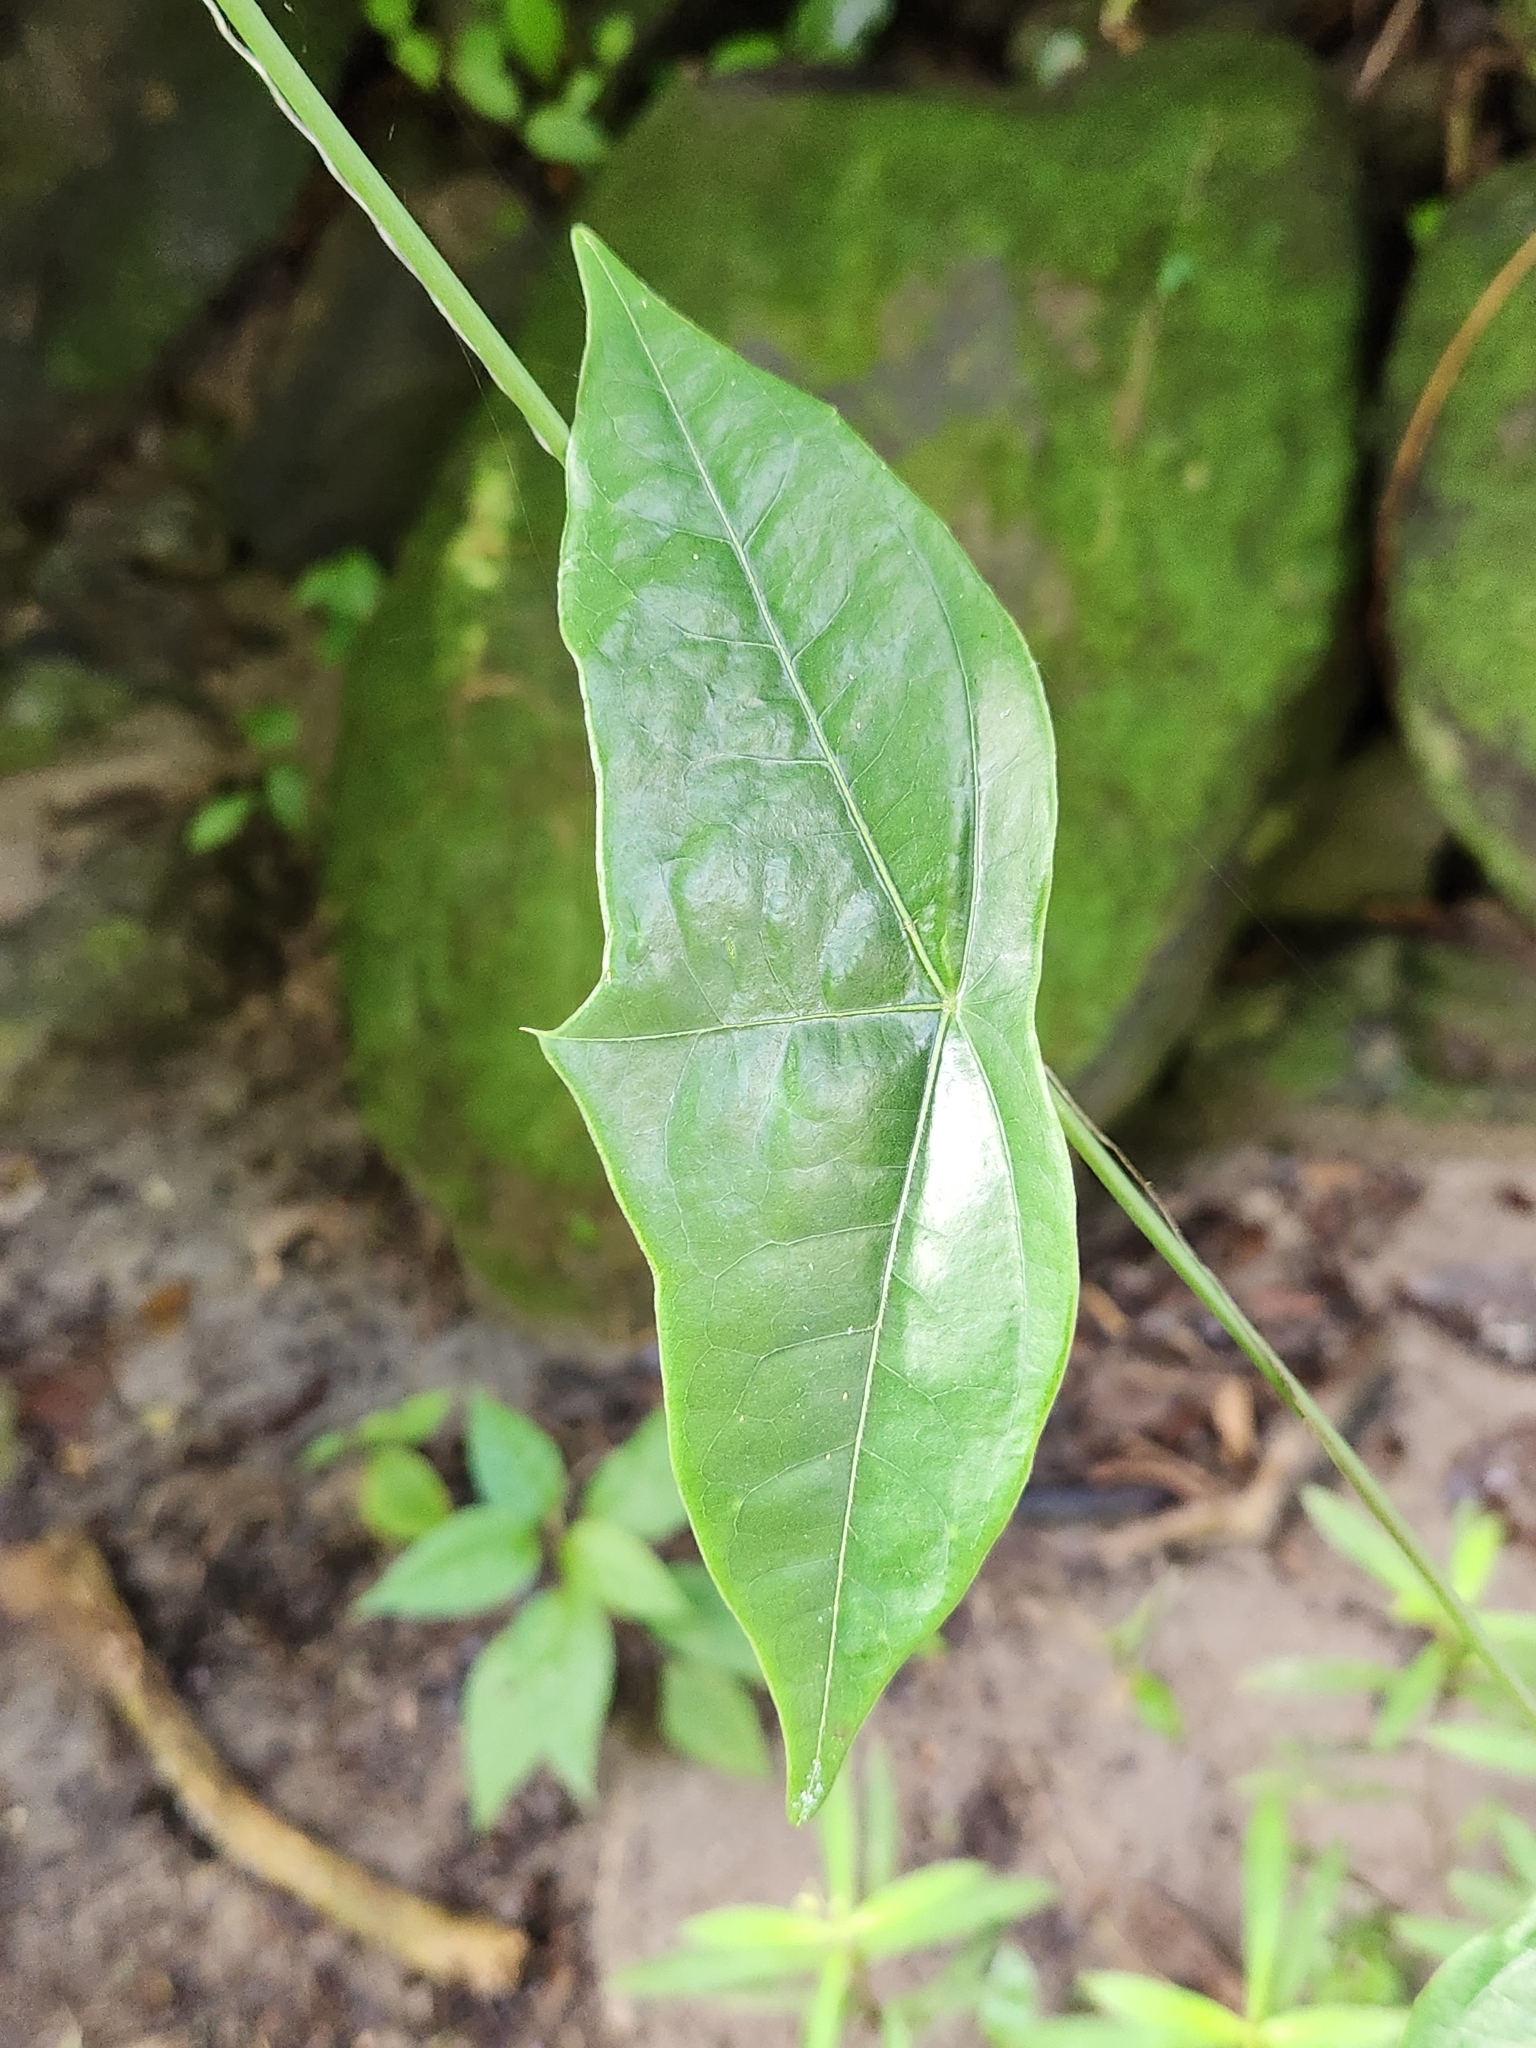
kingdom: Plantae
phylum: Tracheophyta
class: Magnoliopsida
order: Malpighiales
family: Passifloraceae
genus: Passiflora
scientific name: Passiflora megacoriacea
